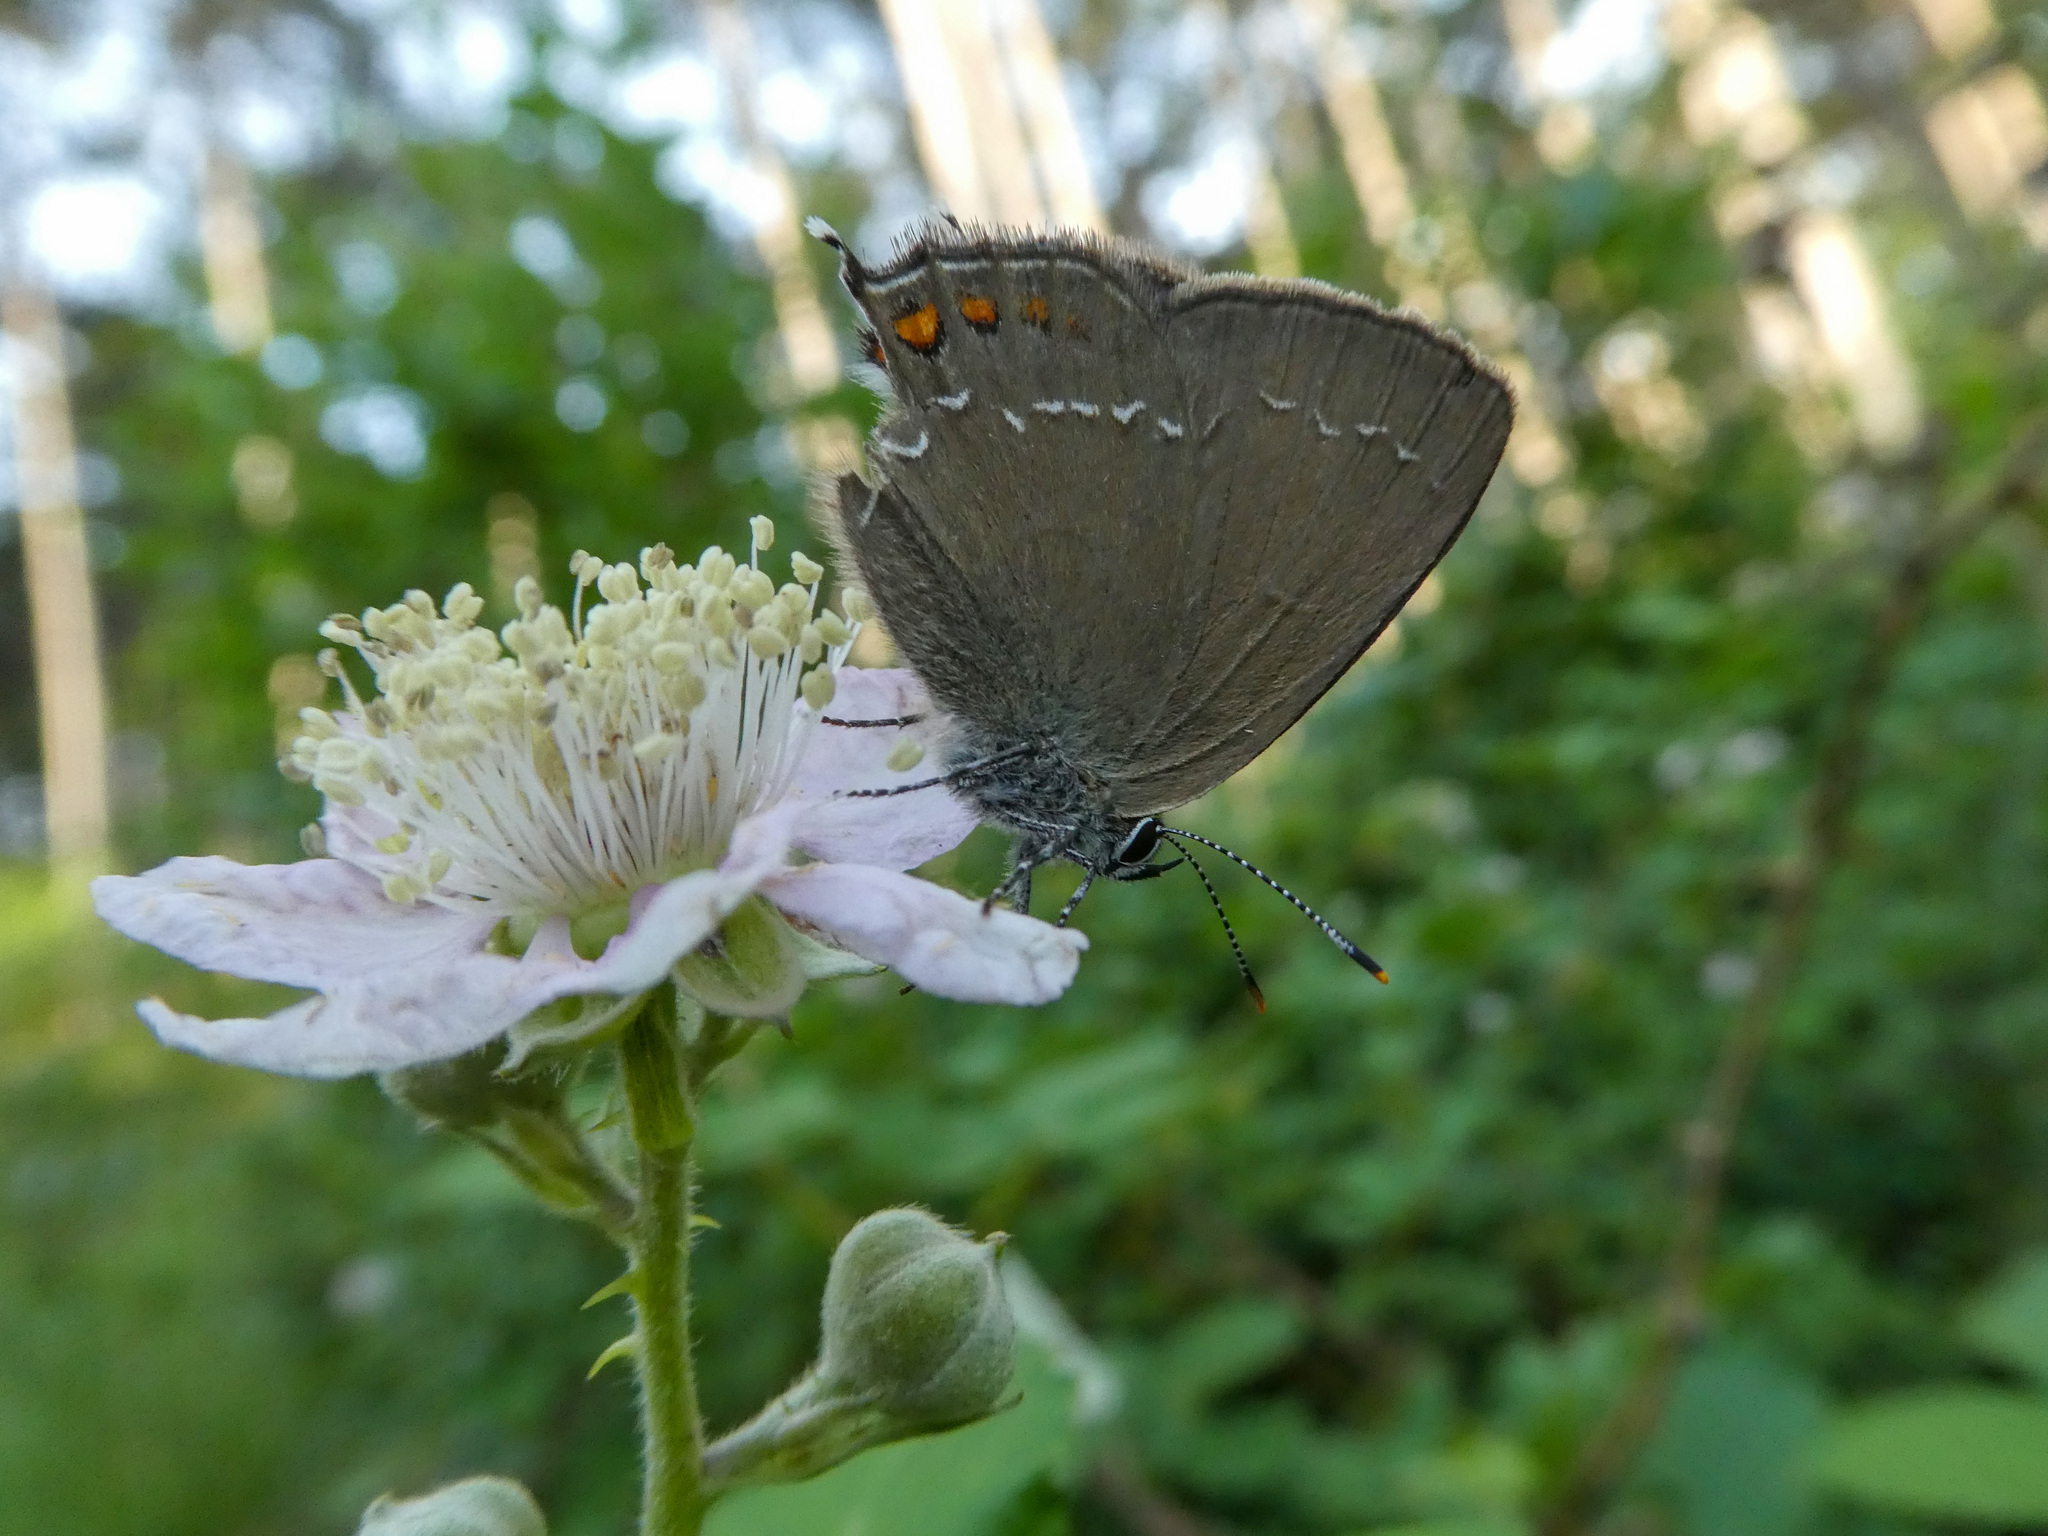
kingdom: Animalia
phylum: Arthropoda
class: Insecta
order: Lepidoptera
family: Lycaenidae
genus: Nordmannia
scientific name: Nordmannia ilicis
